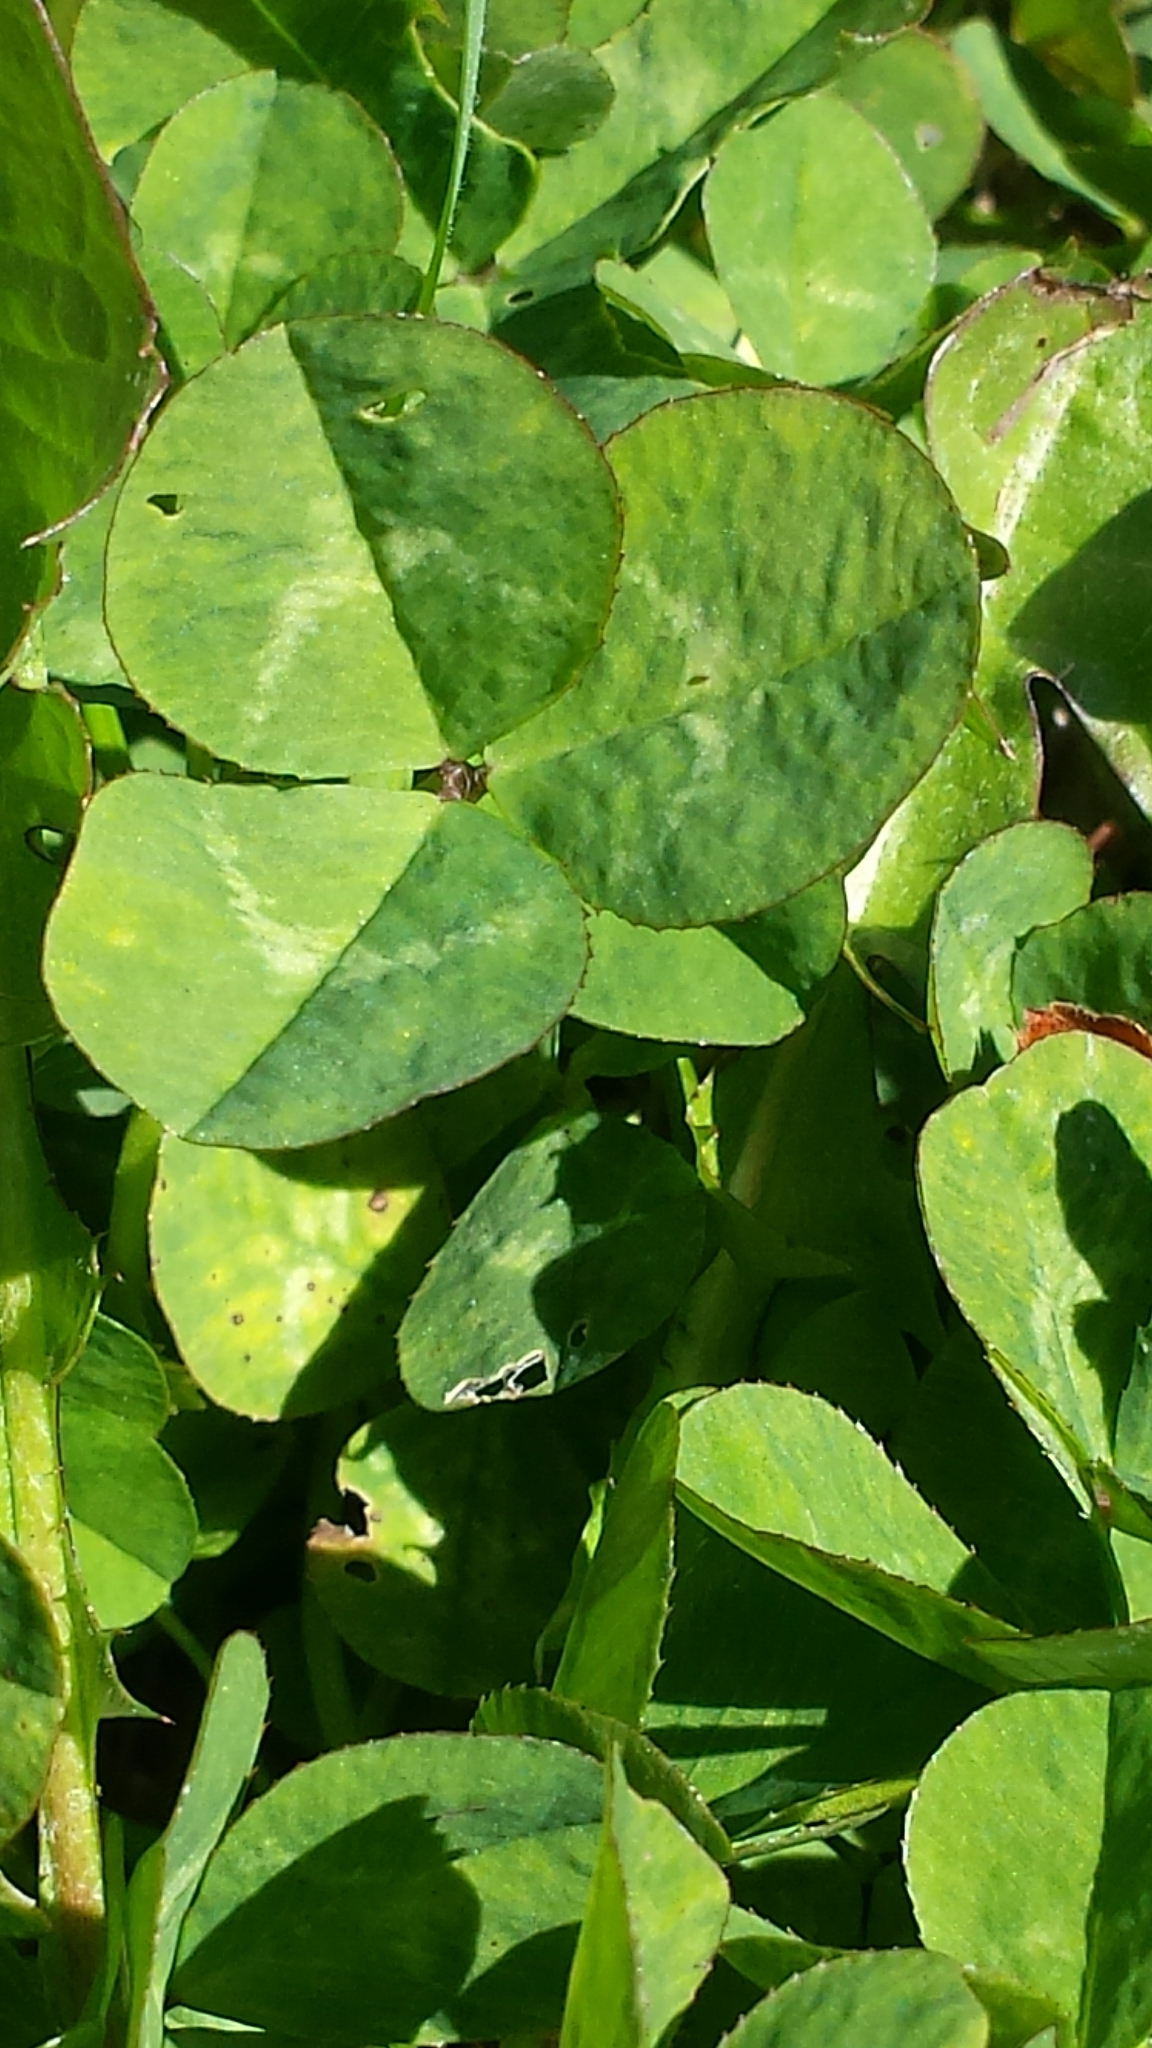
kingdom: Plantae
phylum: Tracheophyta
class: Magnoliopsida
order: Fabales
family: Fabaceae
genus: Trifolium
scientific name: Trifolium repens
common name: White clover
